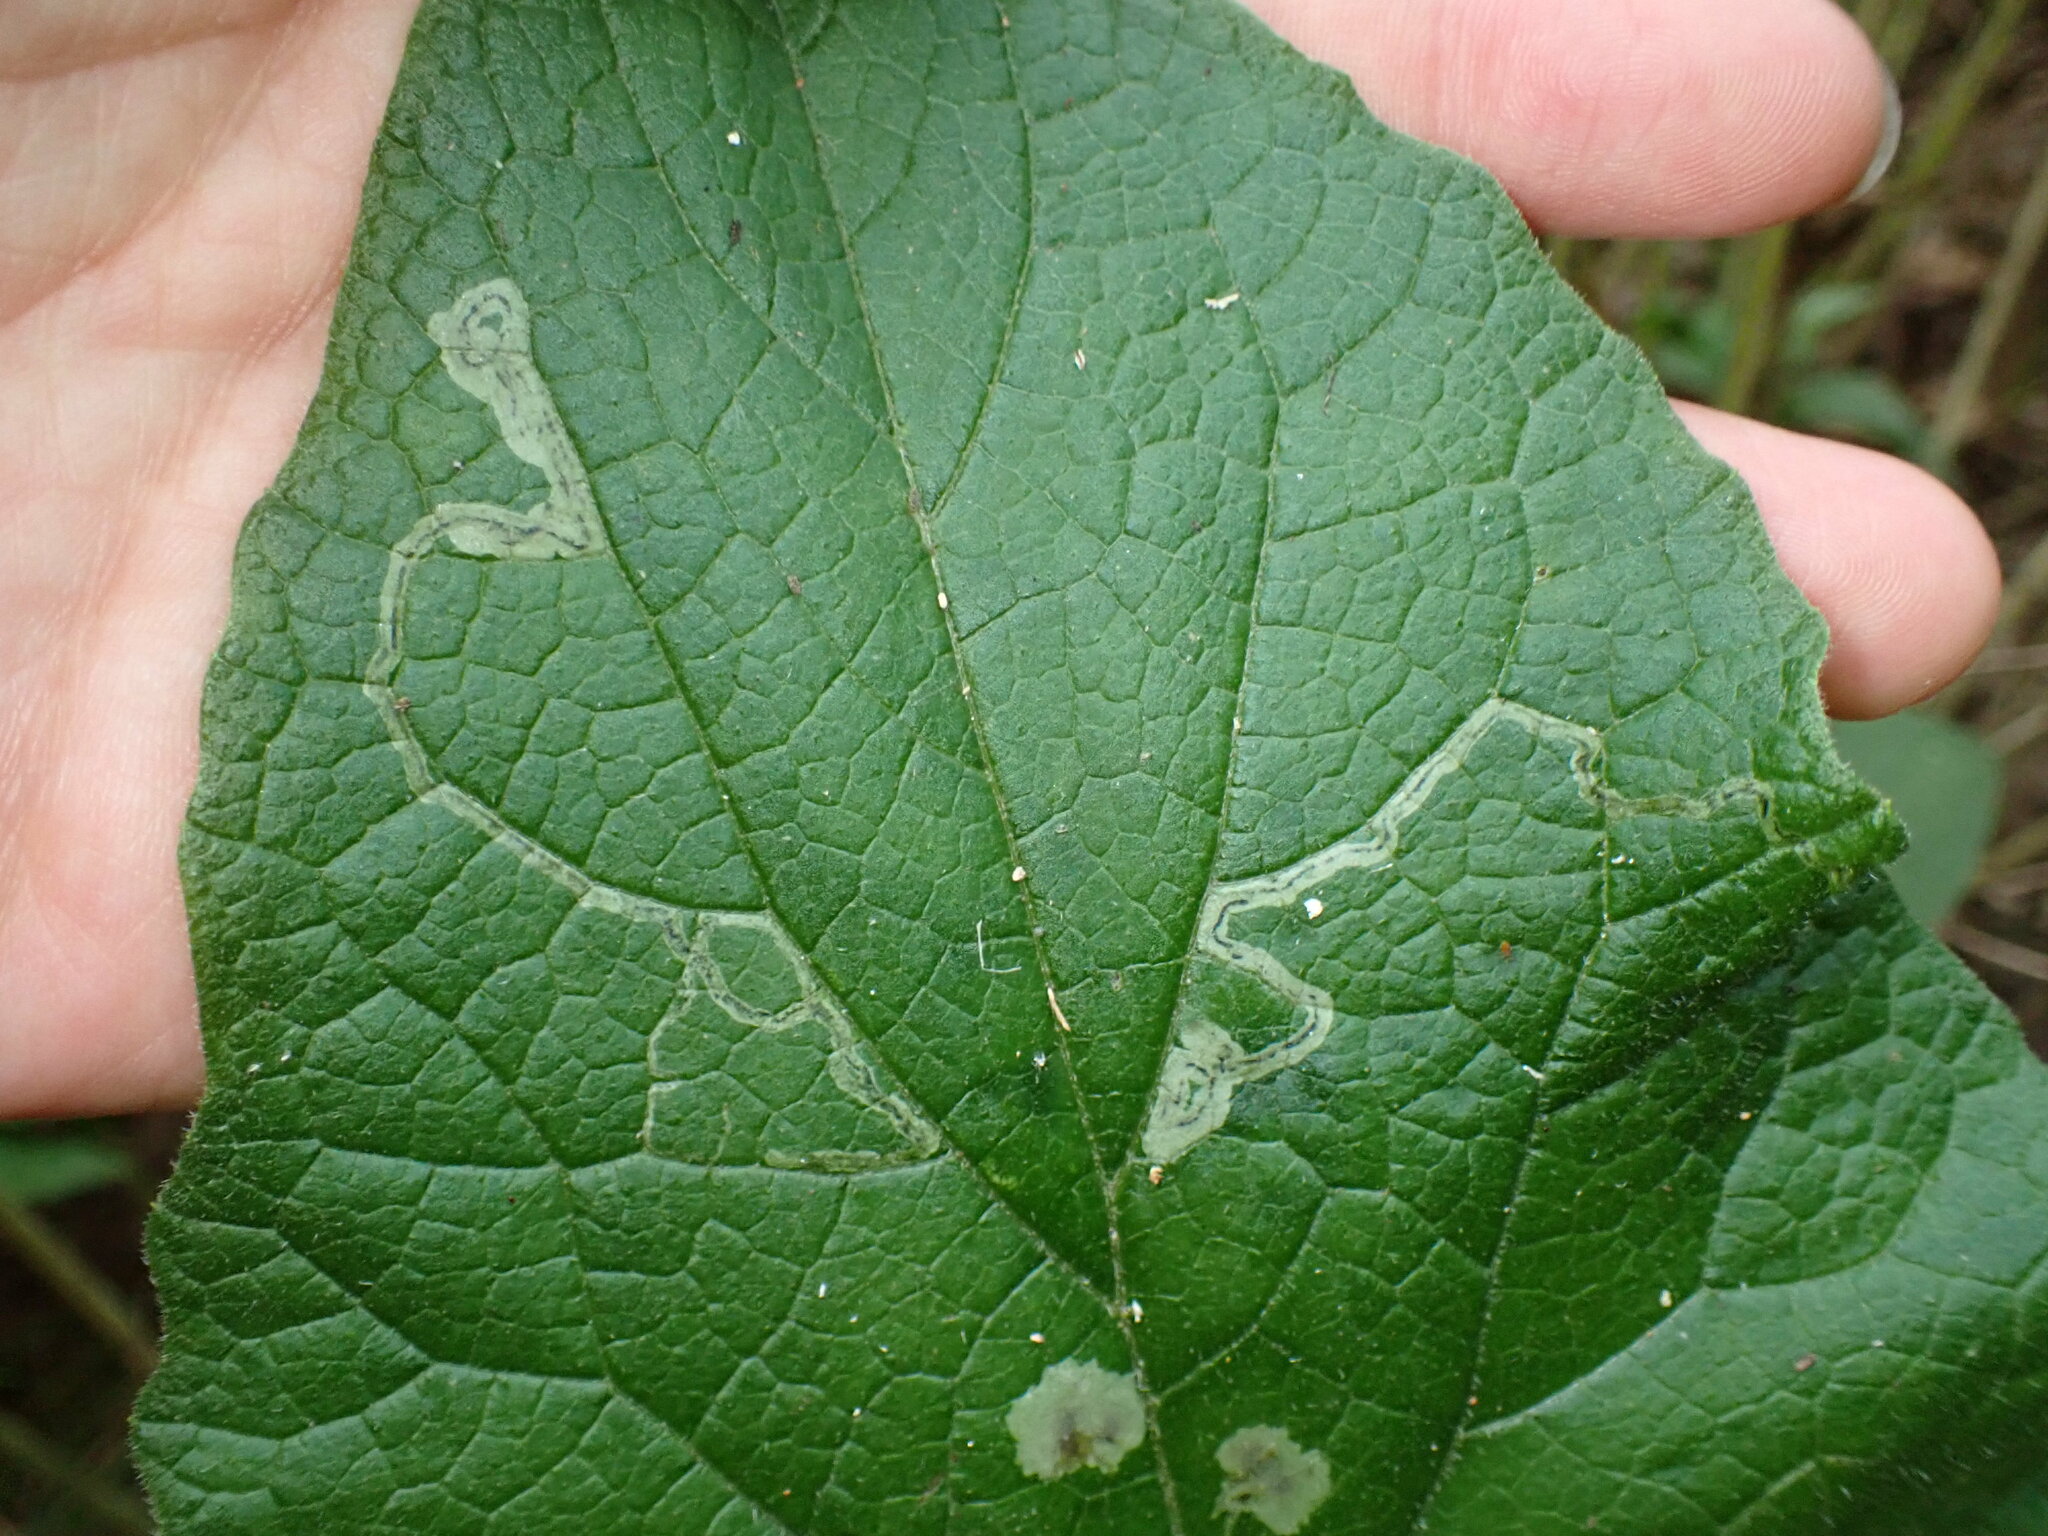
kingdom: Animalia
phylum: Arthropoda
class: Insecta
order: Diptera
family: Agromyzidae
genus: Liriomyza
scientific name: Liriomyza arctii
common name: Burdock leafminer
